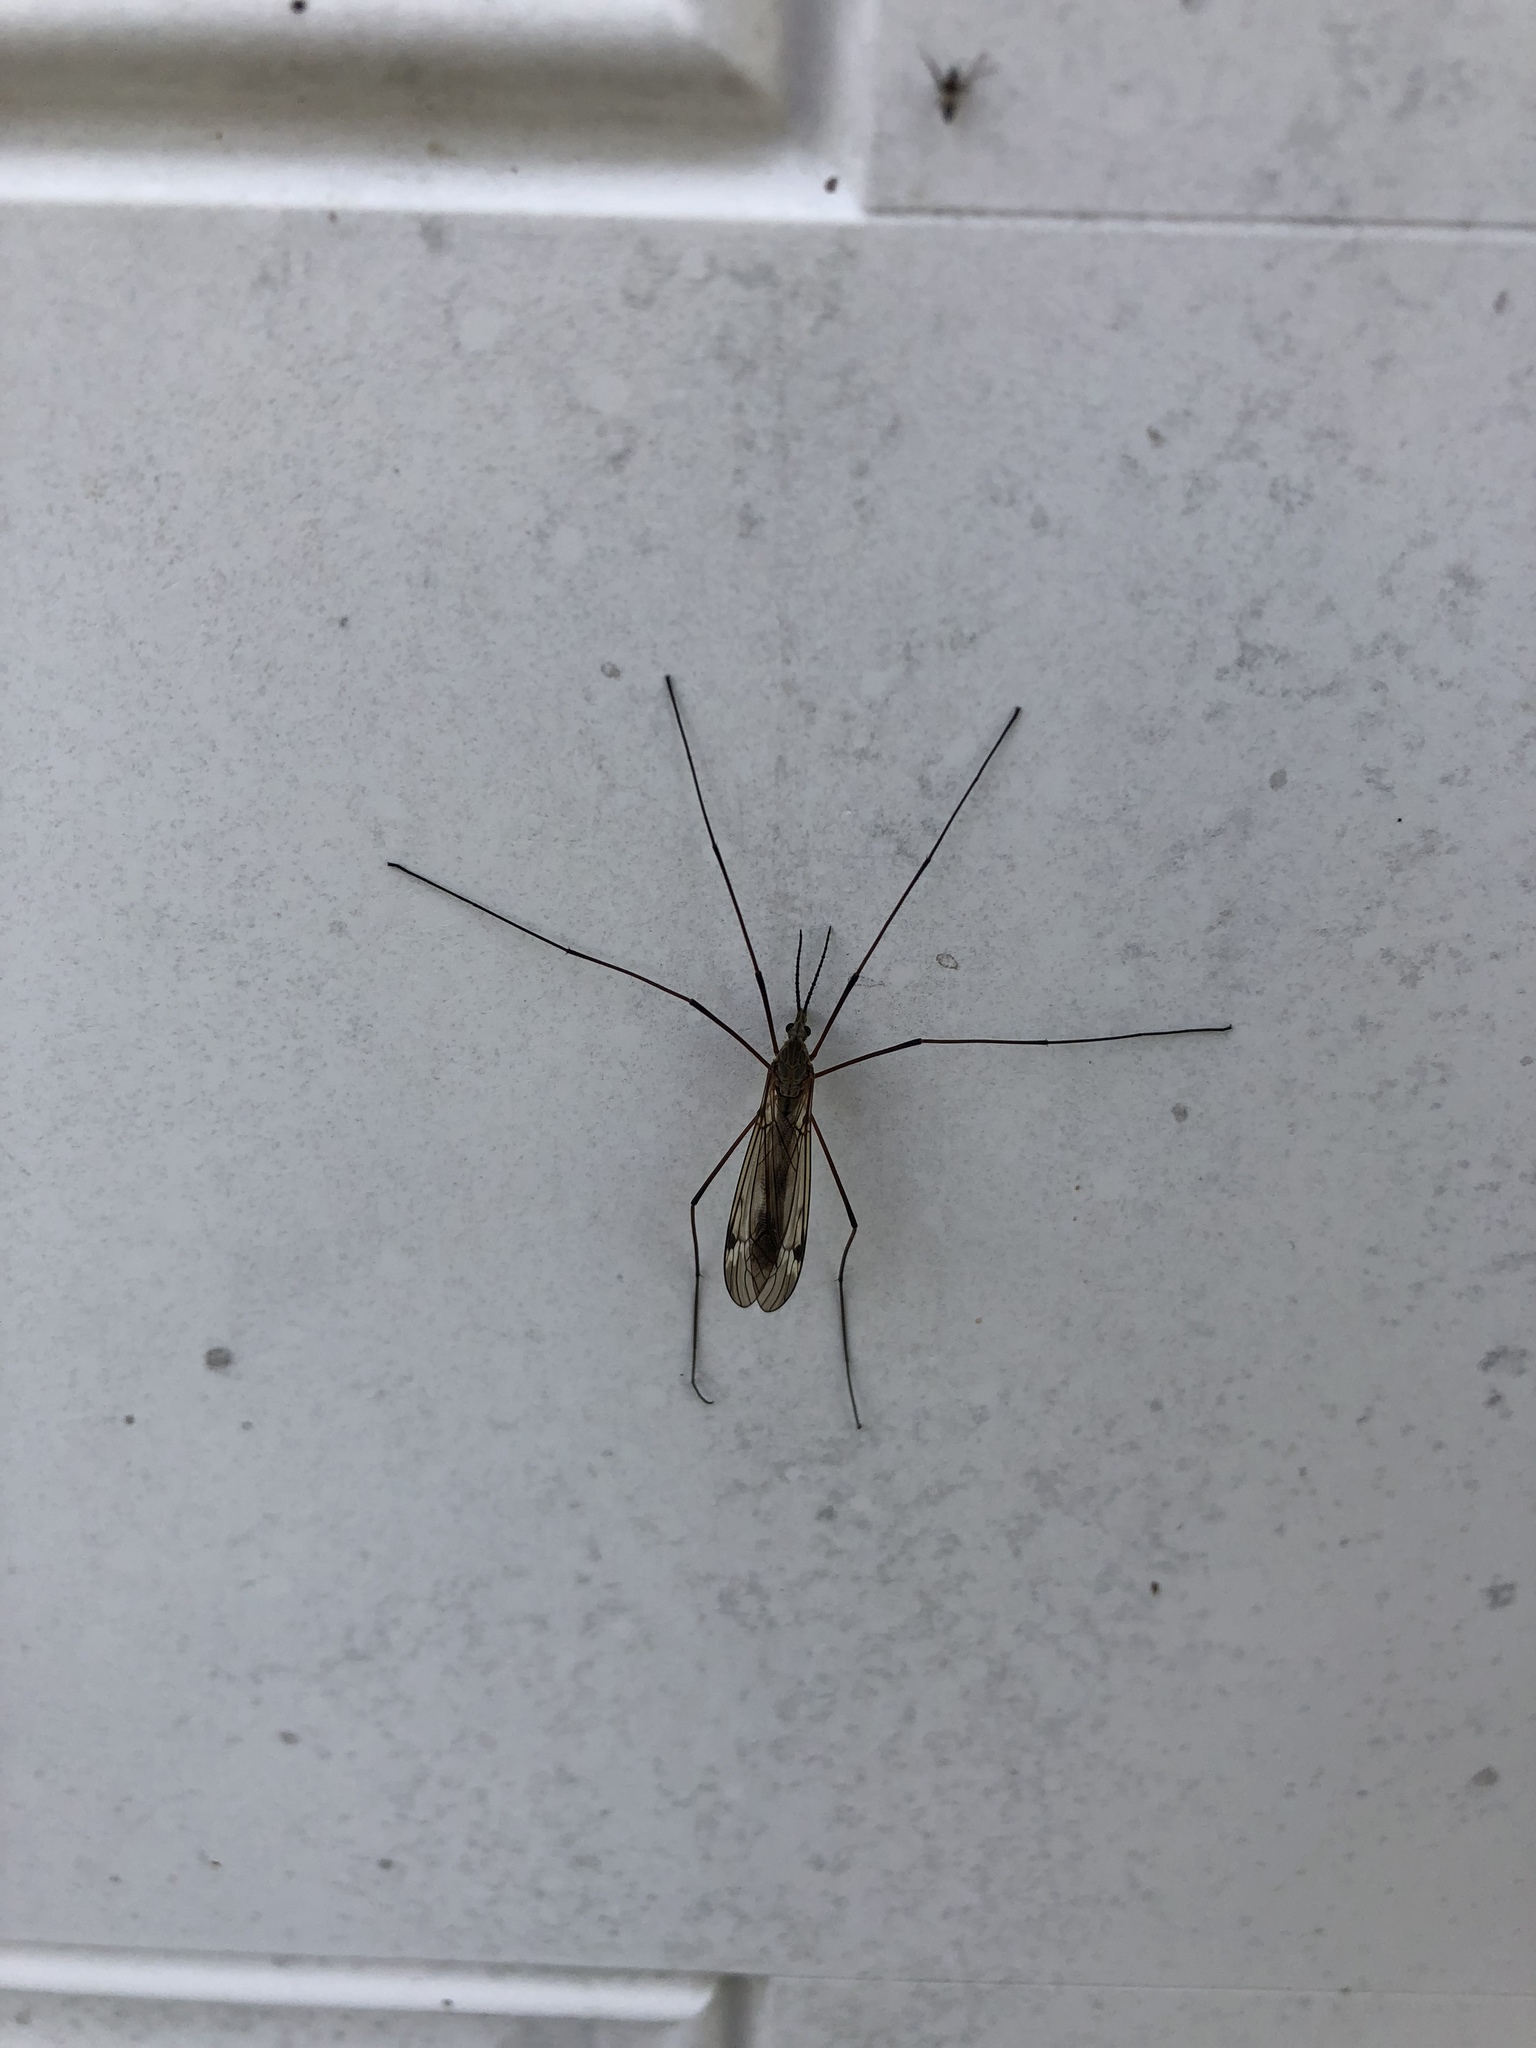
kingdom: Animalia
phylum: Arthropoda
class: Insecta
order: Diptera
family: Tipulidae
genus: Tipula
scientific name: Tipula furca
